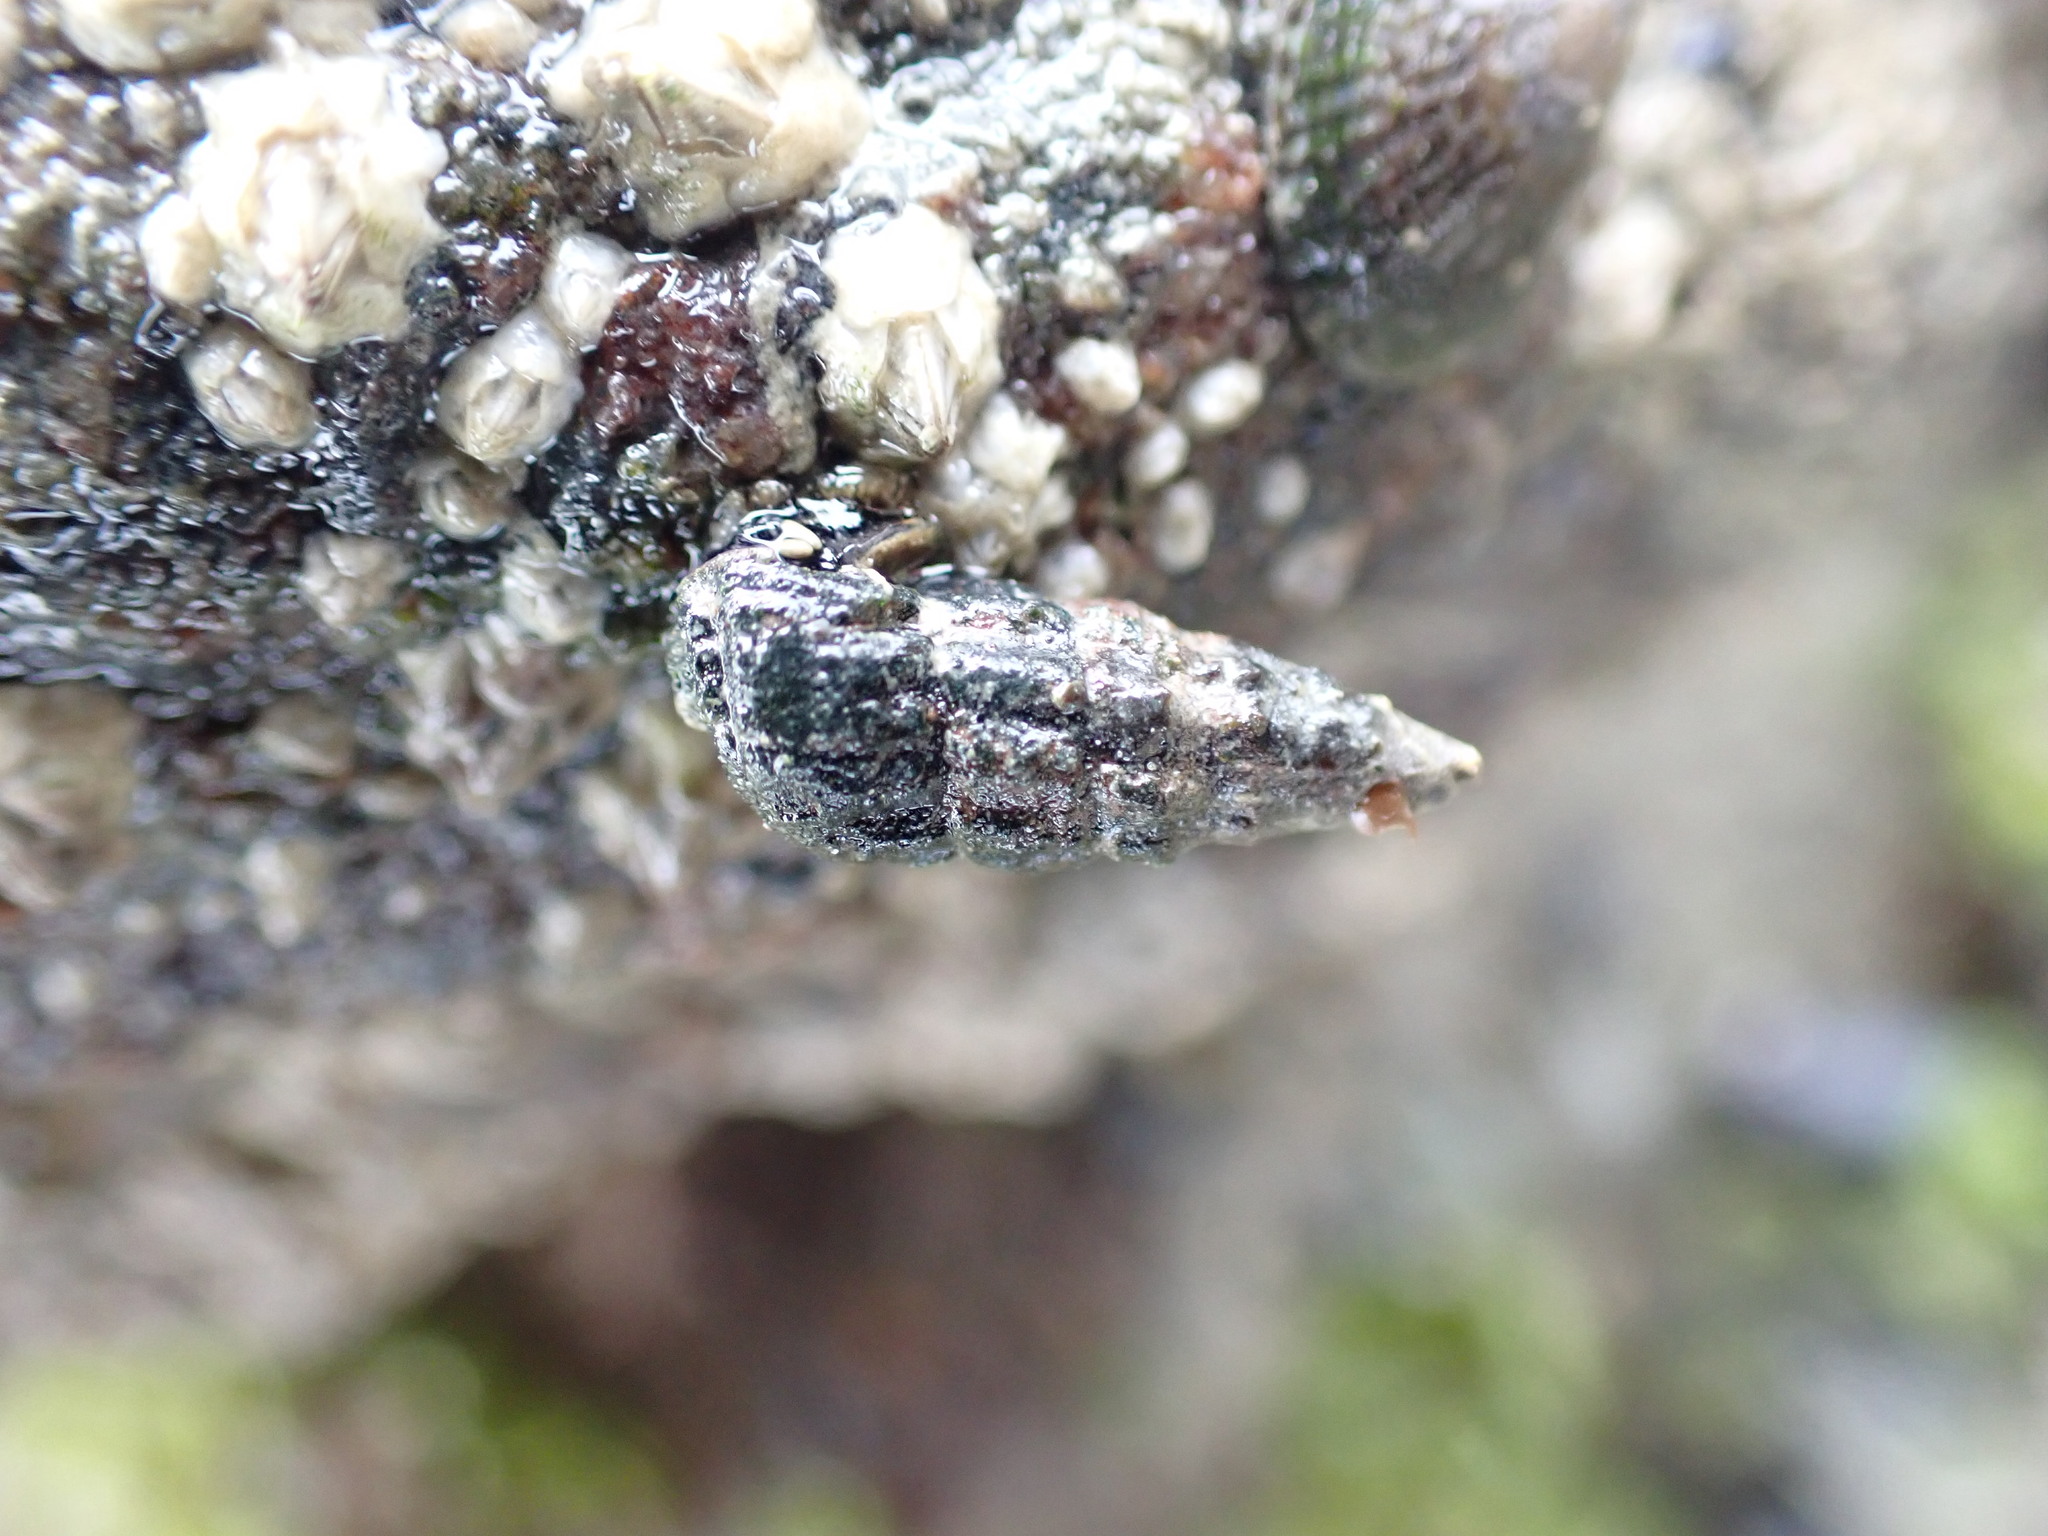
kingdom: Animalia
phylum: Mollusca
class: Gastropoda
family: Batillariidae
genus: Zeacumantus
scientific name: Zeacumantus subcarinatus
